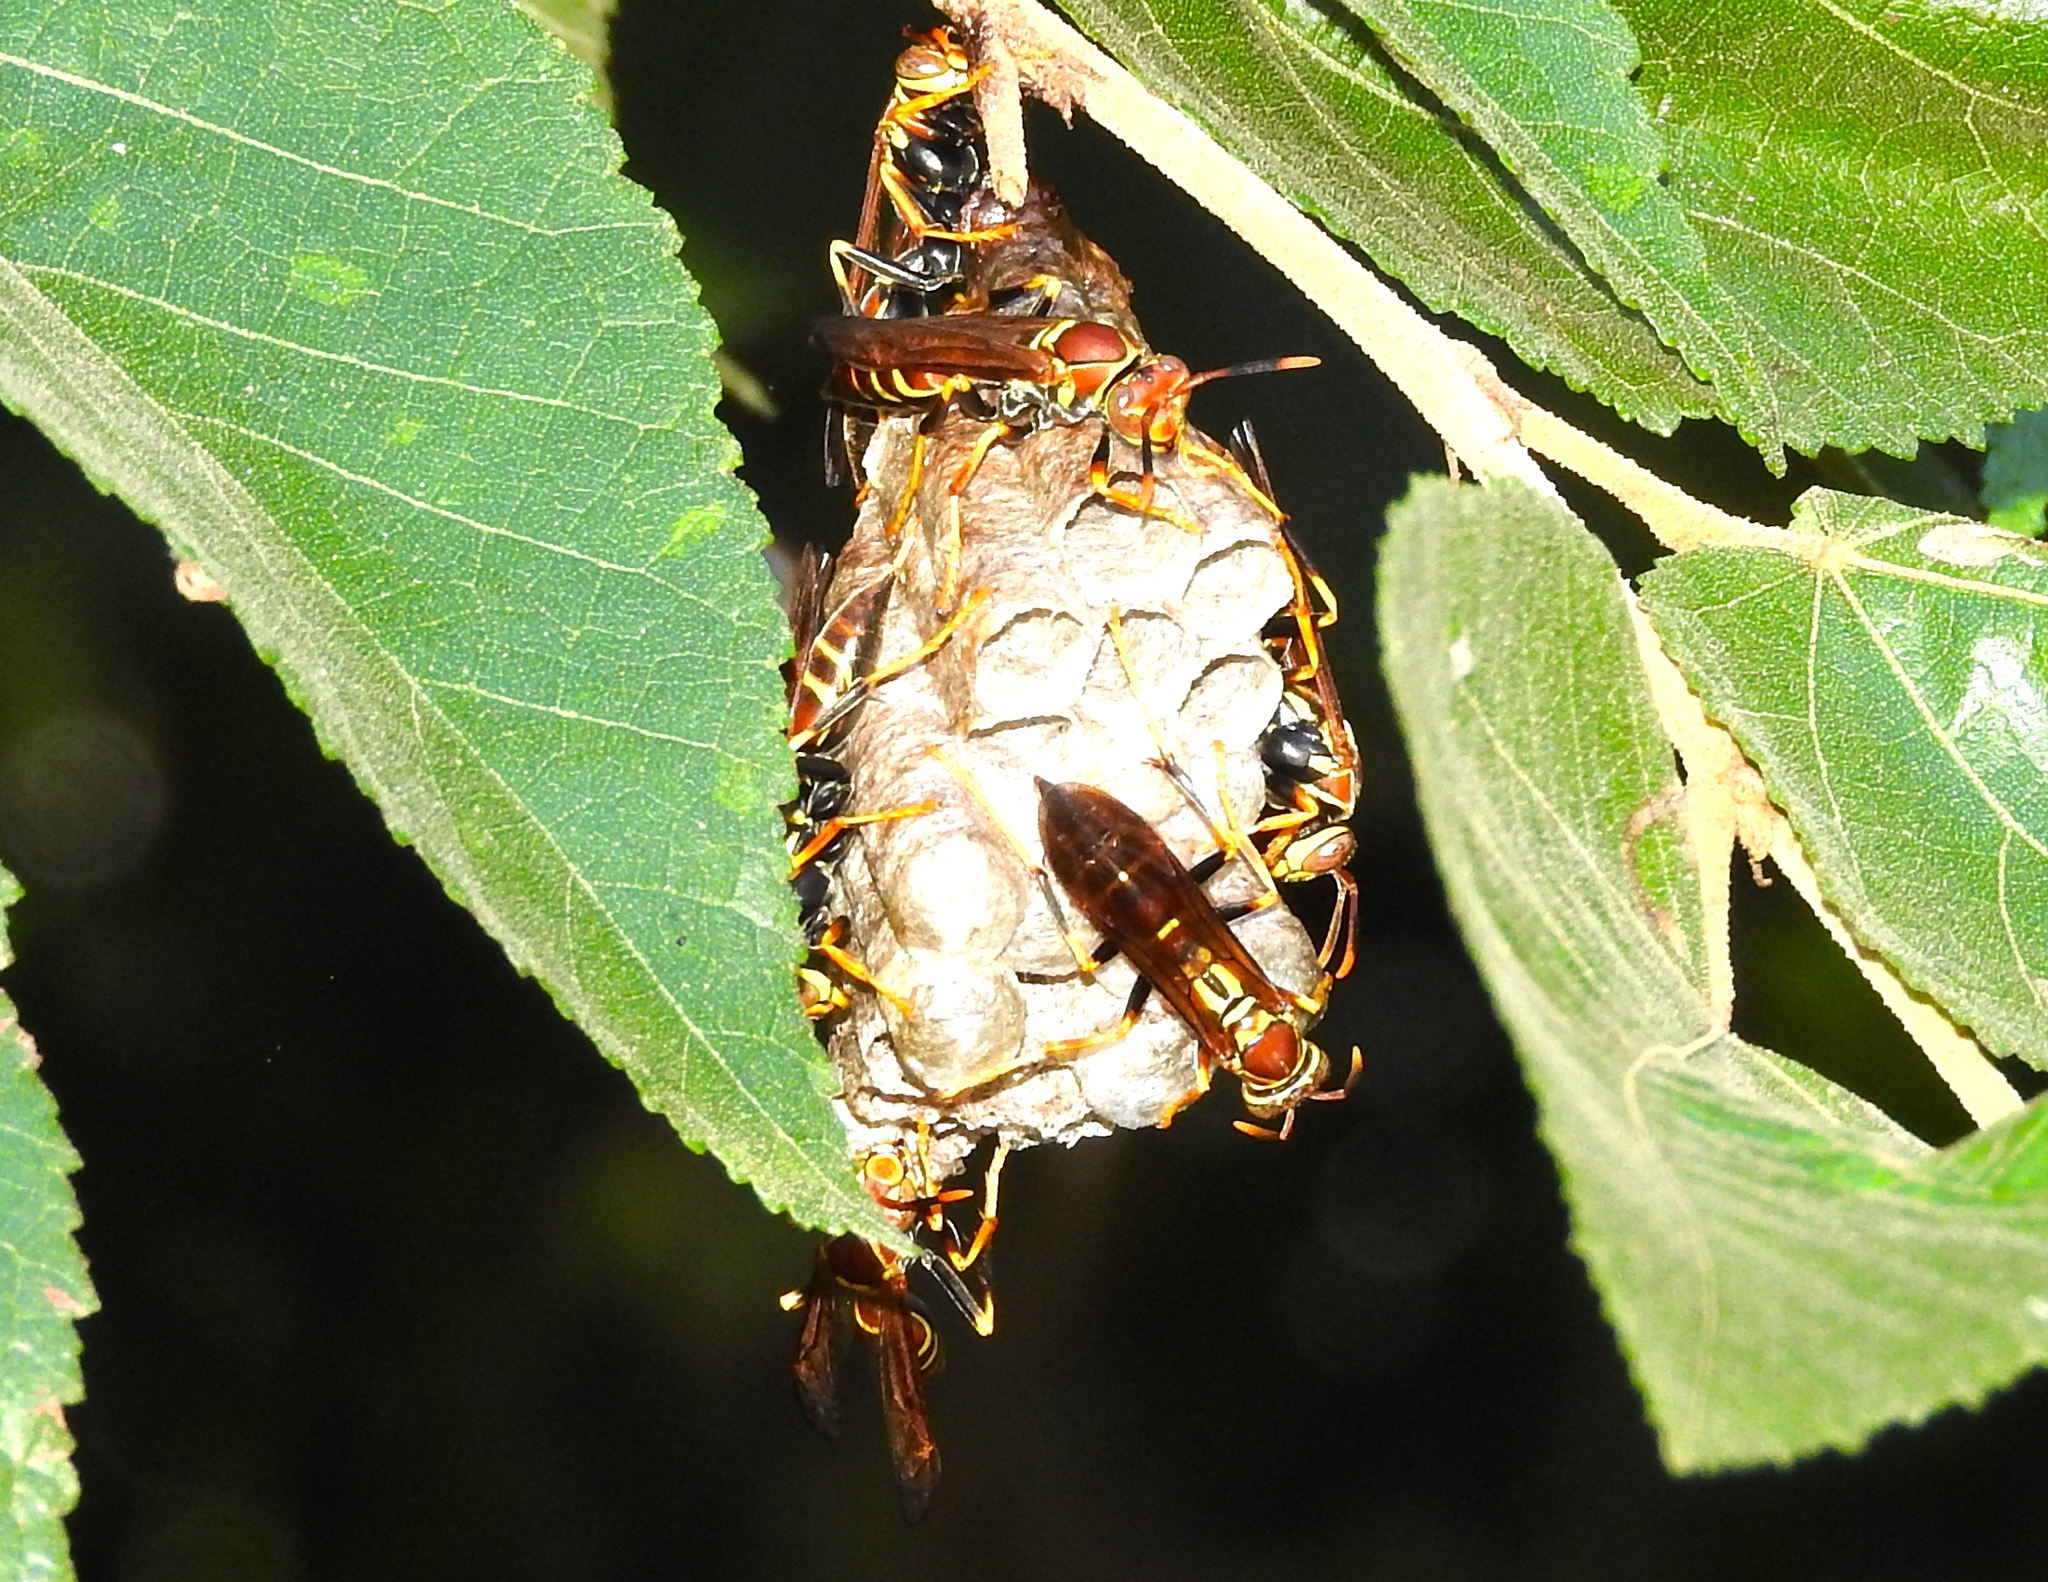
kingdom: Animalia
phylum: Arthropoda
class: Insecta
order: Hymenoptera
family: Eumenidae
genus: Polistes
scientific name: Polistes instabilis
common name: Unstable paper wasp
